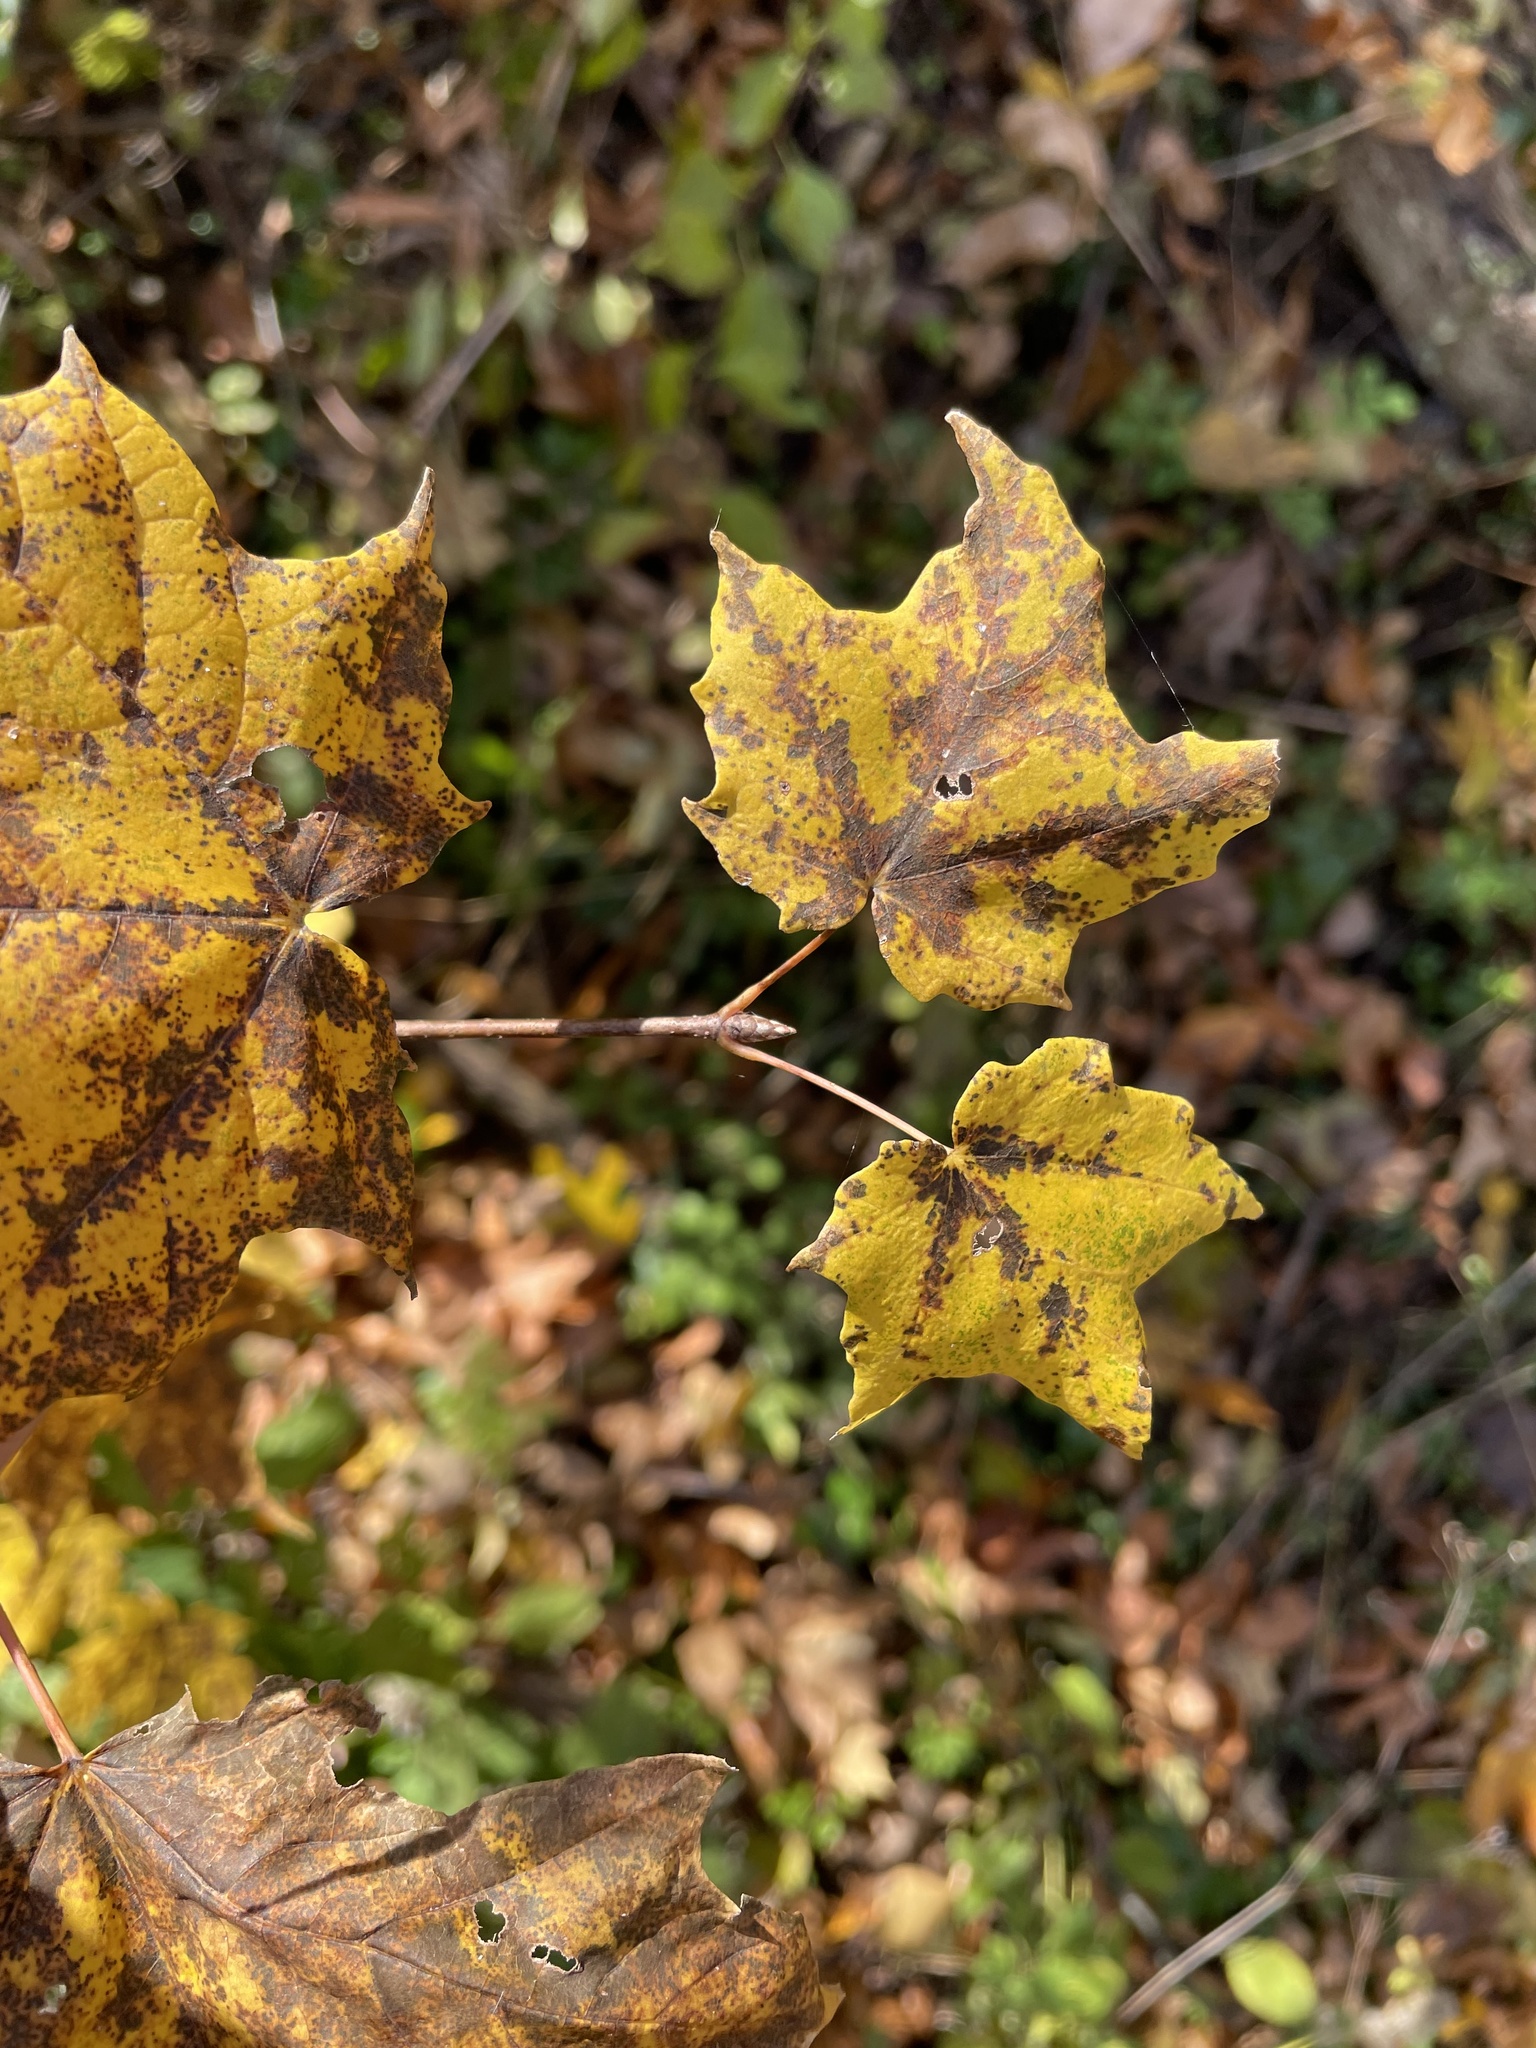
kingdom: Plantae
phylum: Tracheophyta
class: Magnoliopsida
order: Sapindales
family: Sapindaceae
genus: Acer
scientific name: Acer saccharum
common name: Sugar maple
